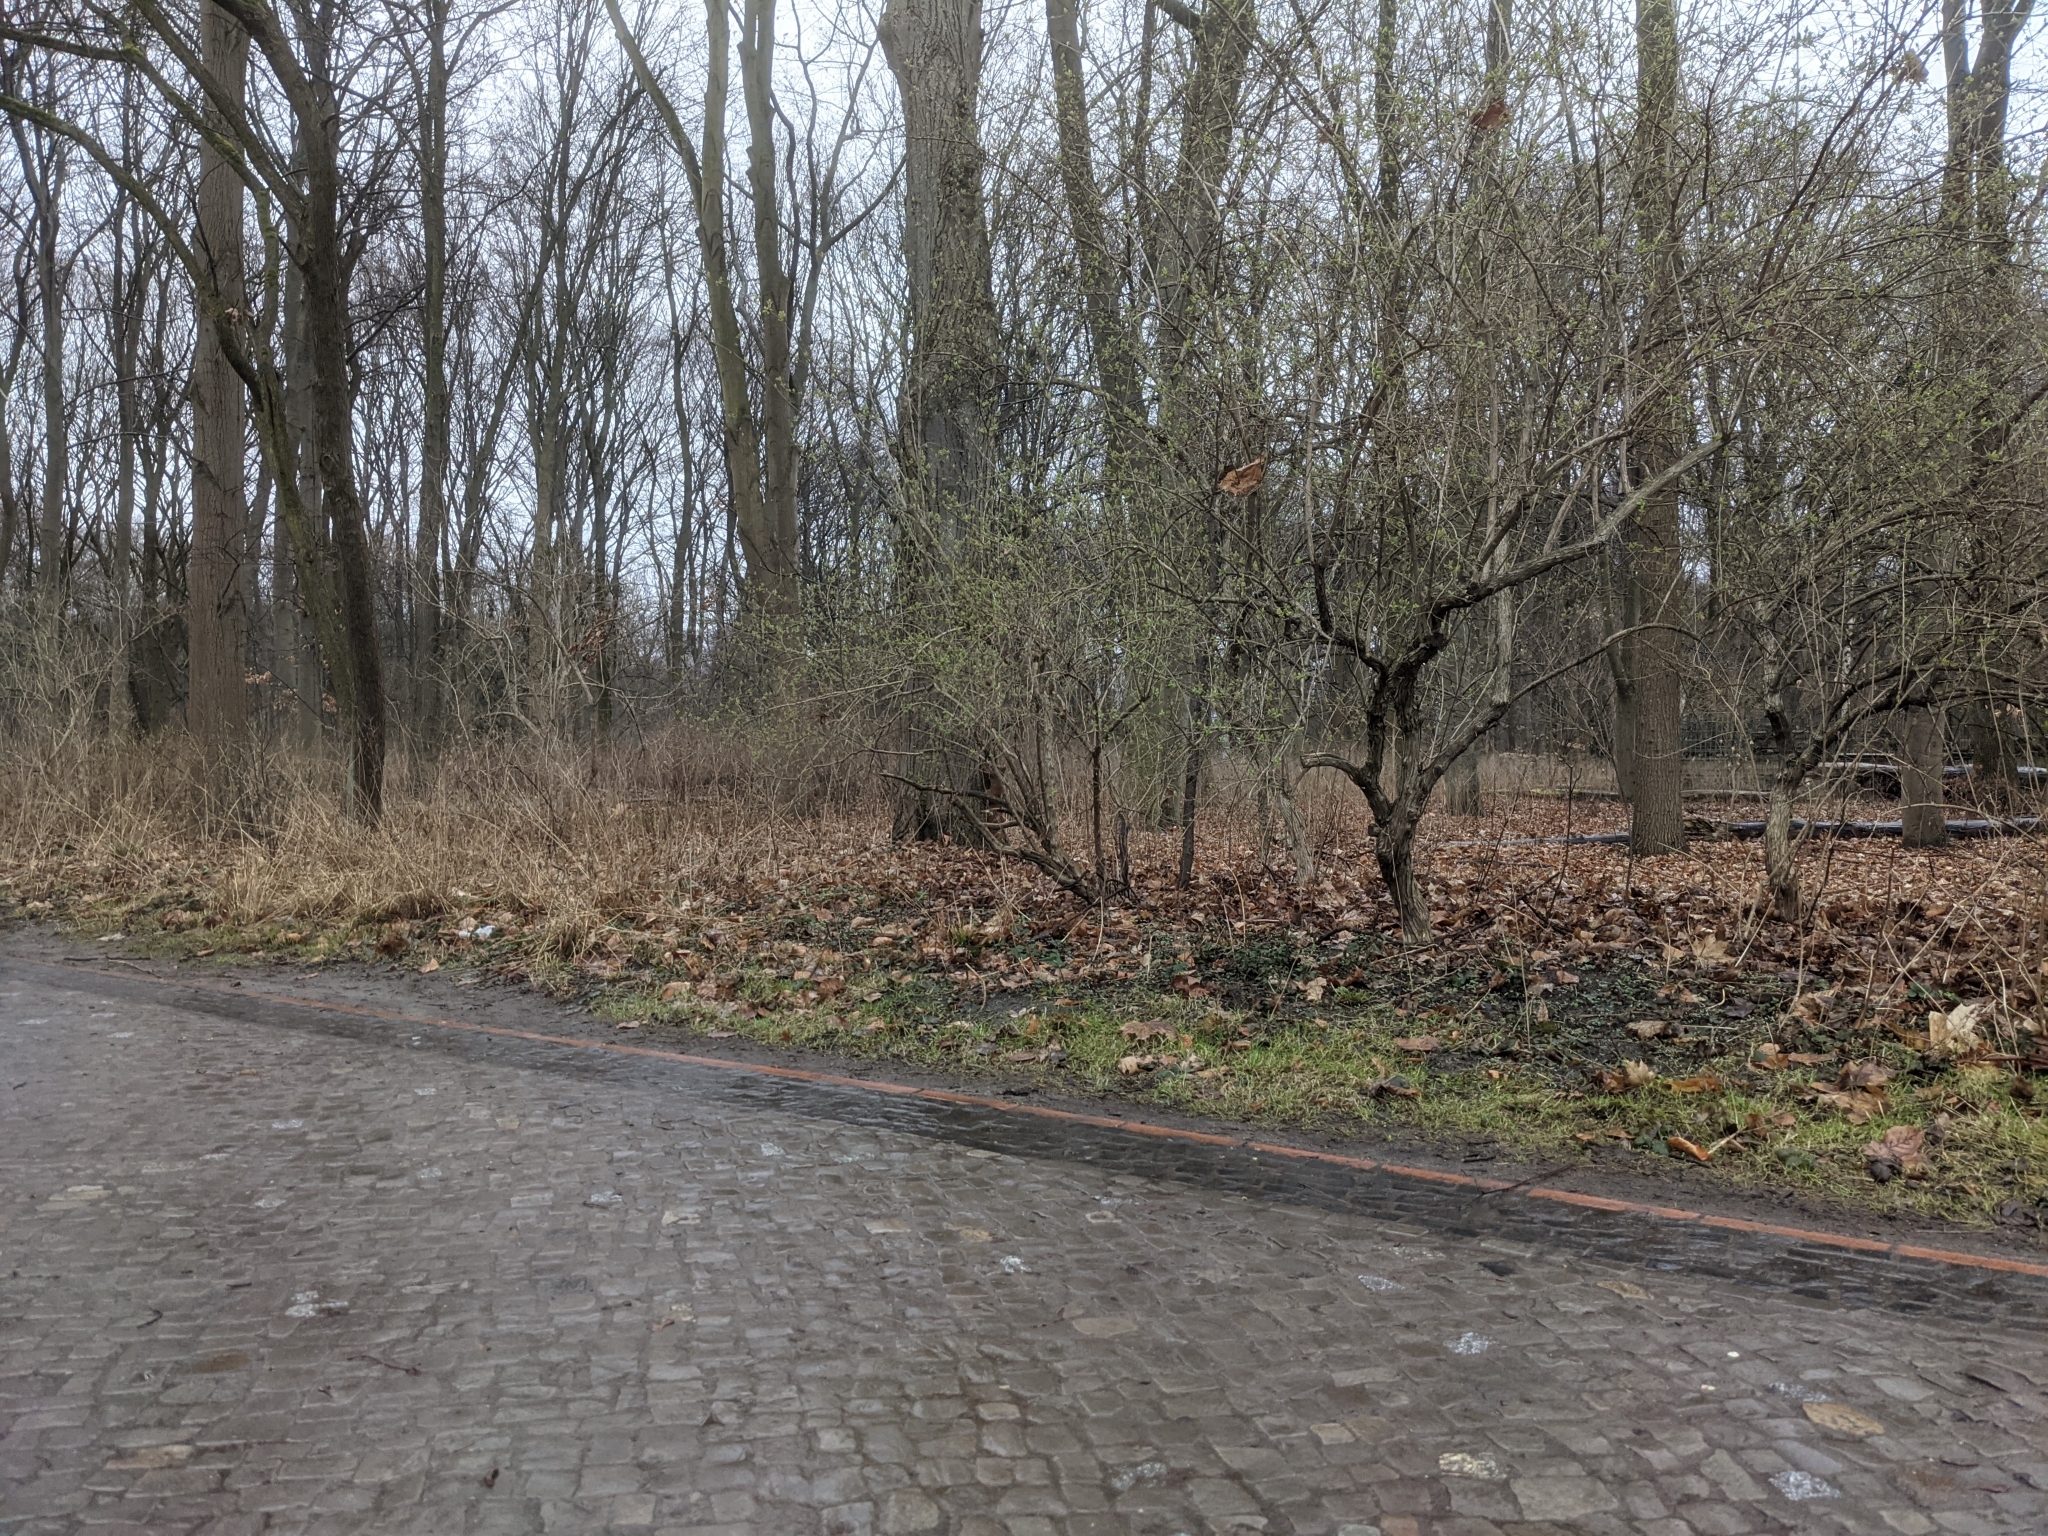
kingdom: Animalia
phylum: Chordata
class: Mammalia
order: Rodentia
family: Sciuridae
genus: Sciurus
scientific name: Sciurus vulgaris
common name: Eurasian red squirrel
